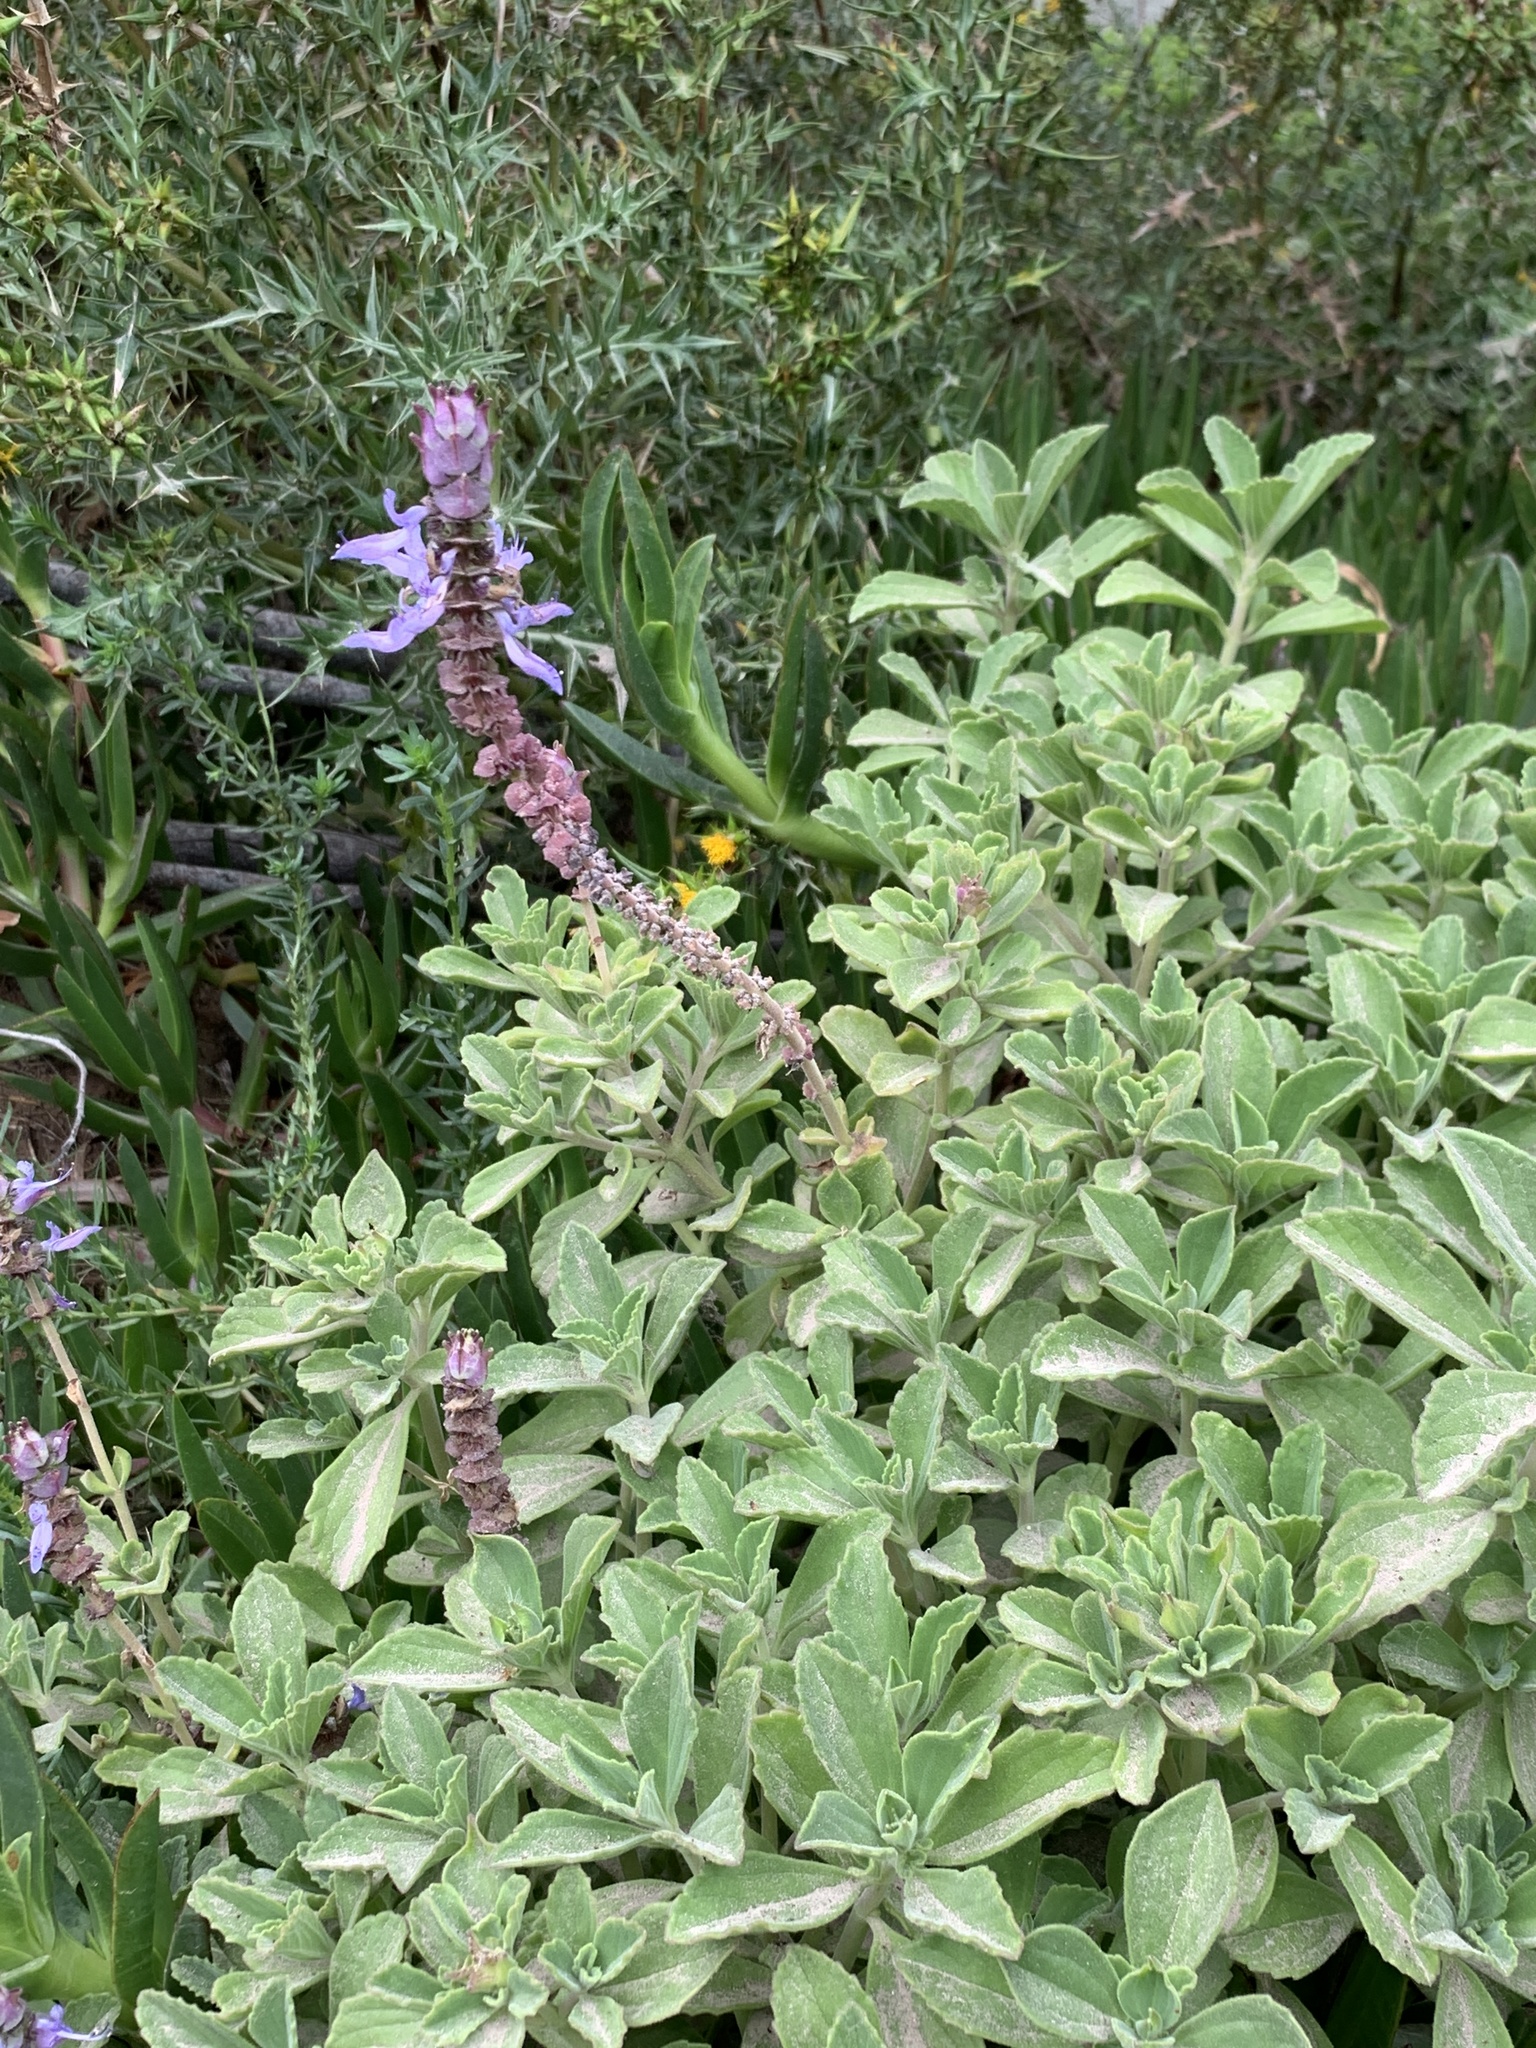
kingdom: Plantae
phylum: Tracheophyta
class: Magnoliopsida
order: Lamiales
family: Lamiaceae
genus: Coleus
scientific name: Coleus neochilus
